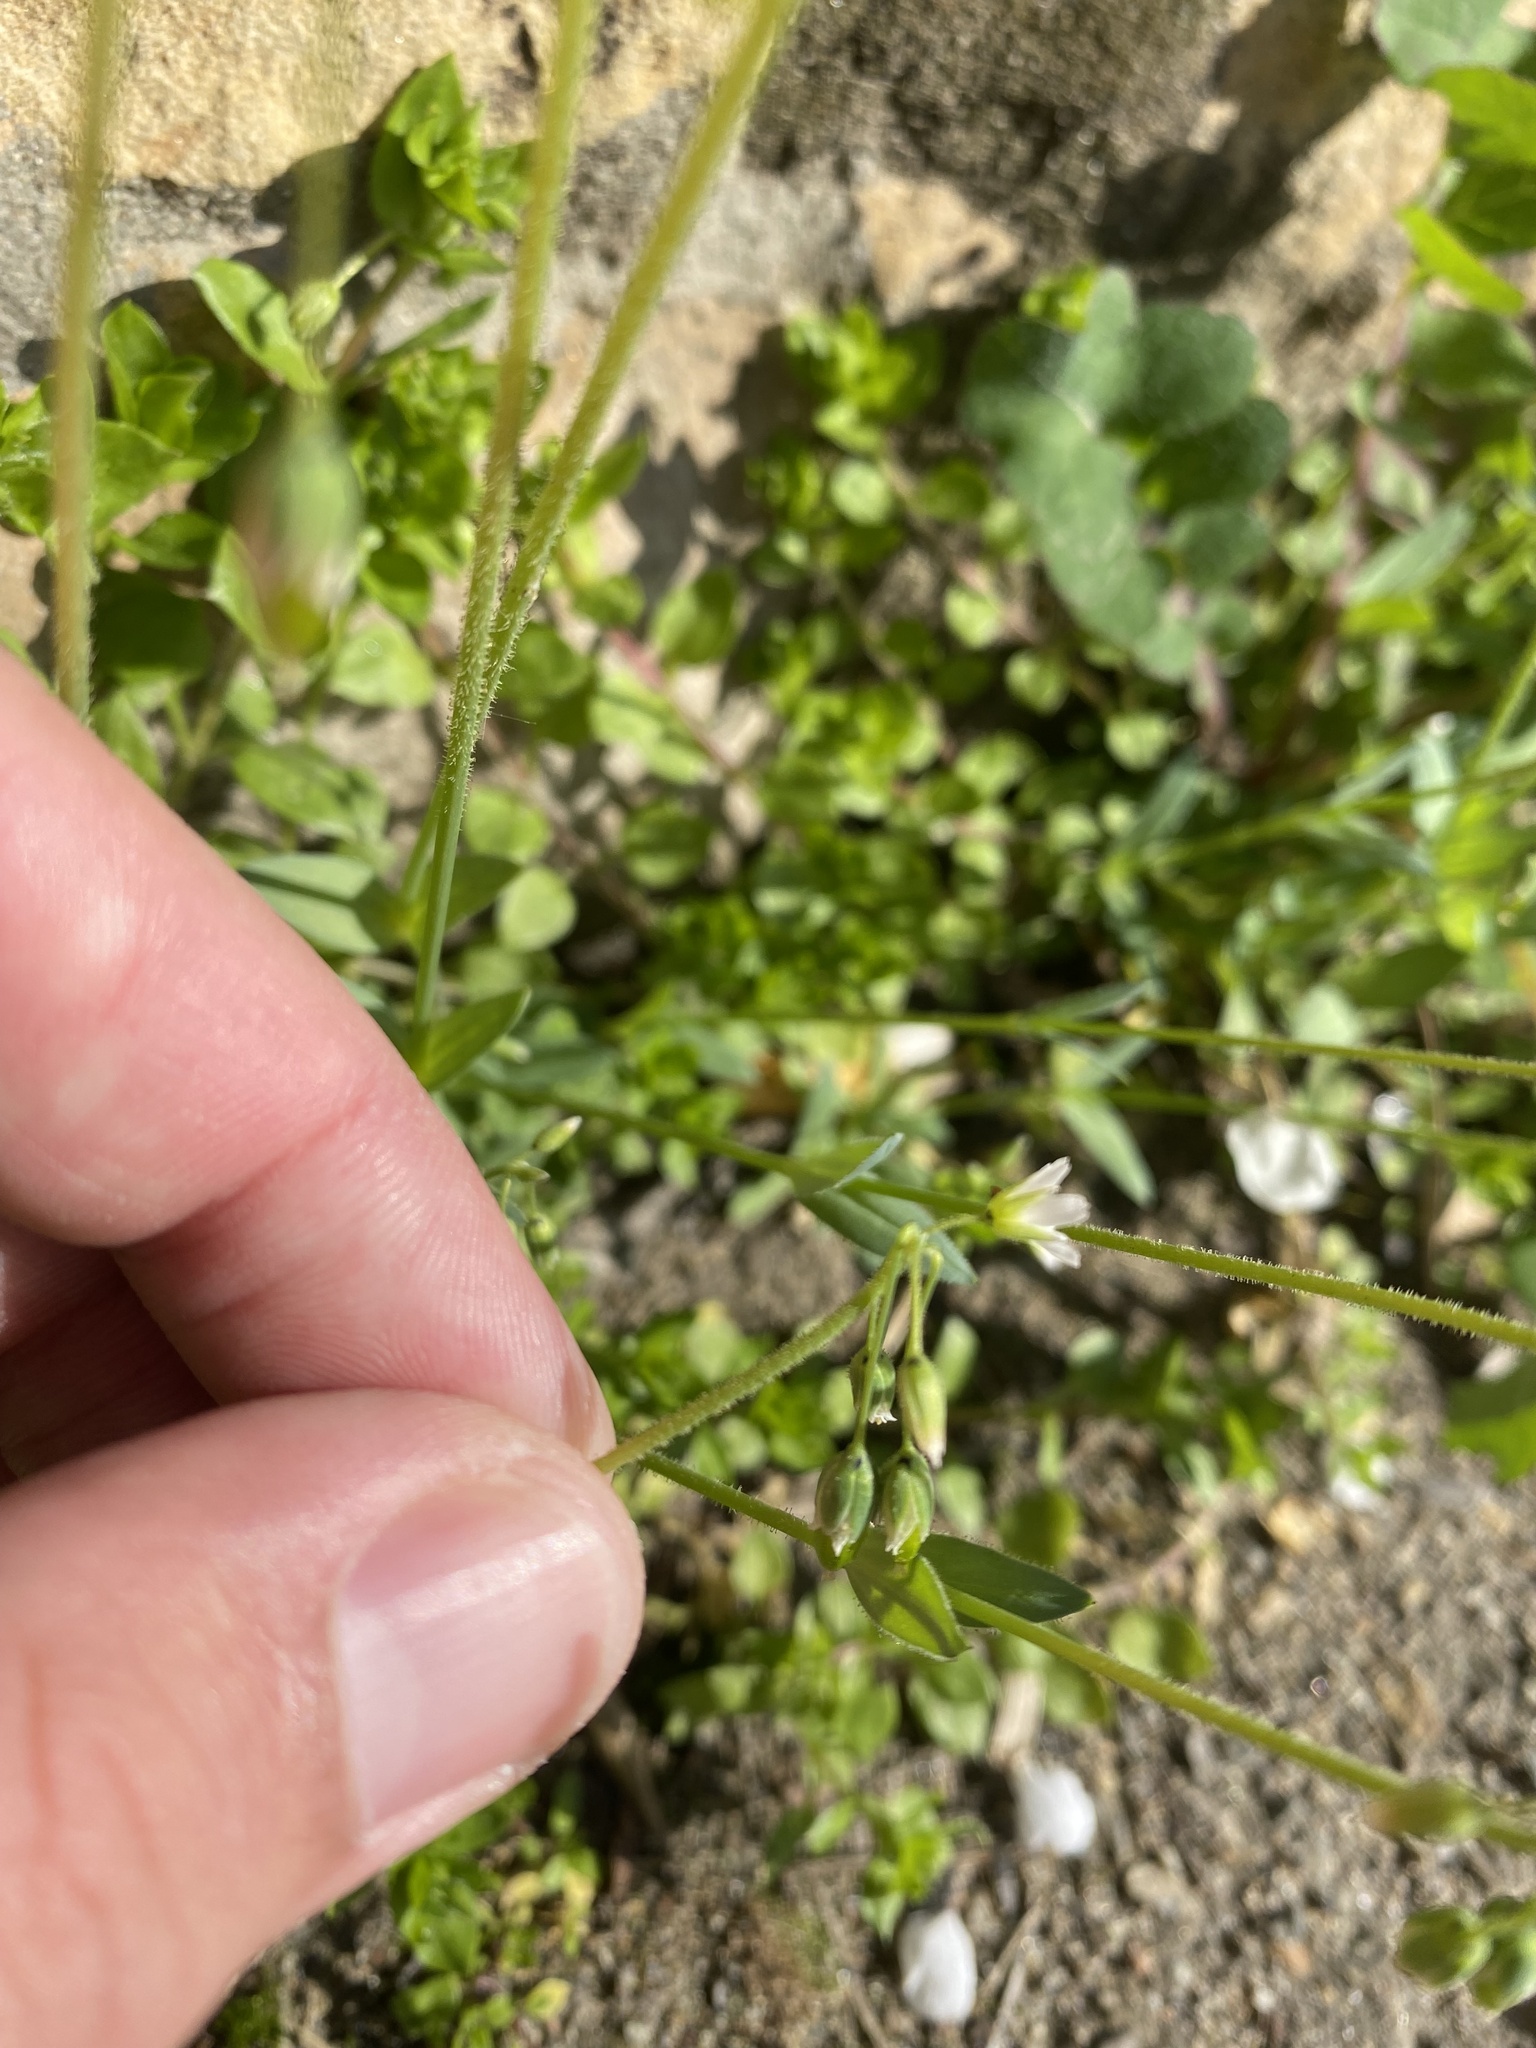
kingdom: Plantae
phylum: Tracheophyta
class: Magnoliopsida
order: Caryophyllales
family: Caryophyllaceae
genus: Holosteum
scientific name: Holosteum umbellatum
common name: Jagged chickweed
